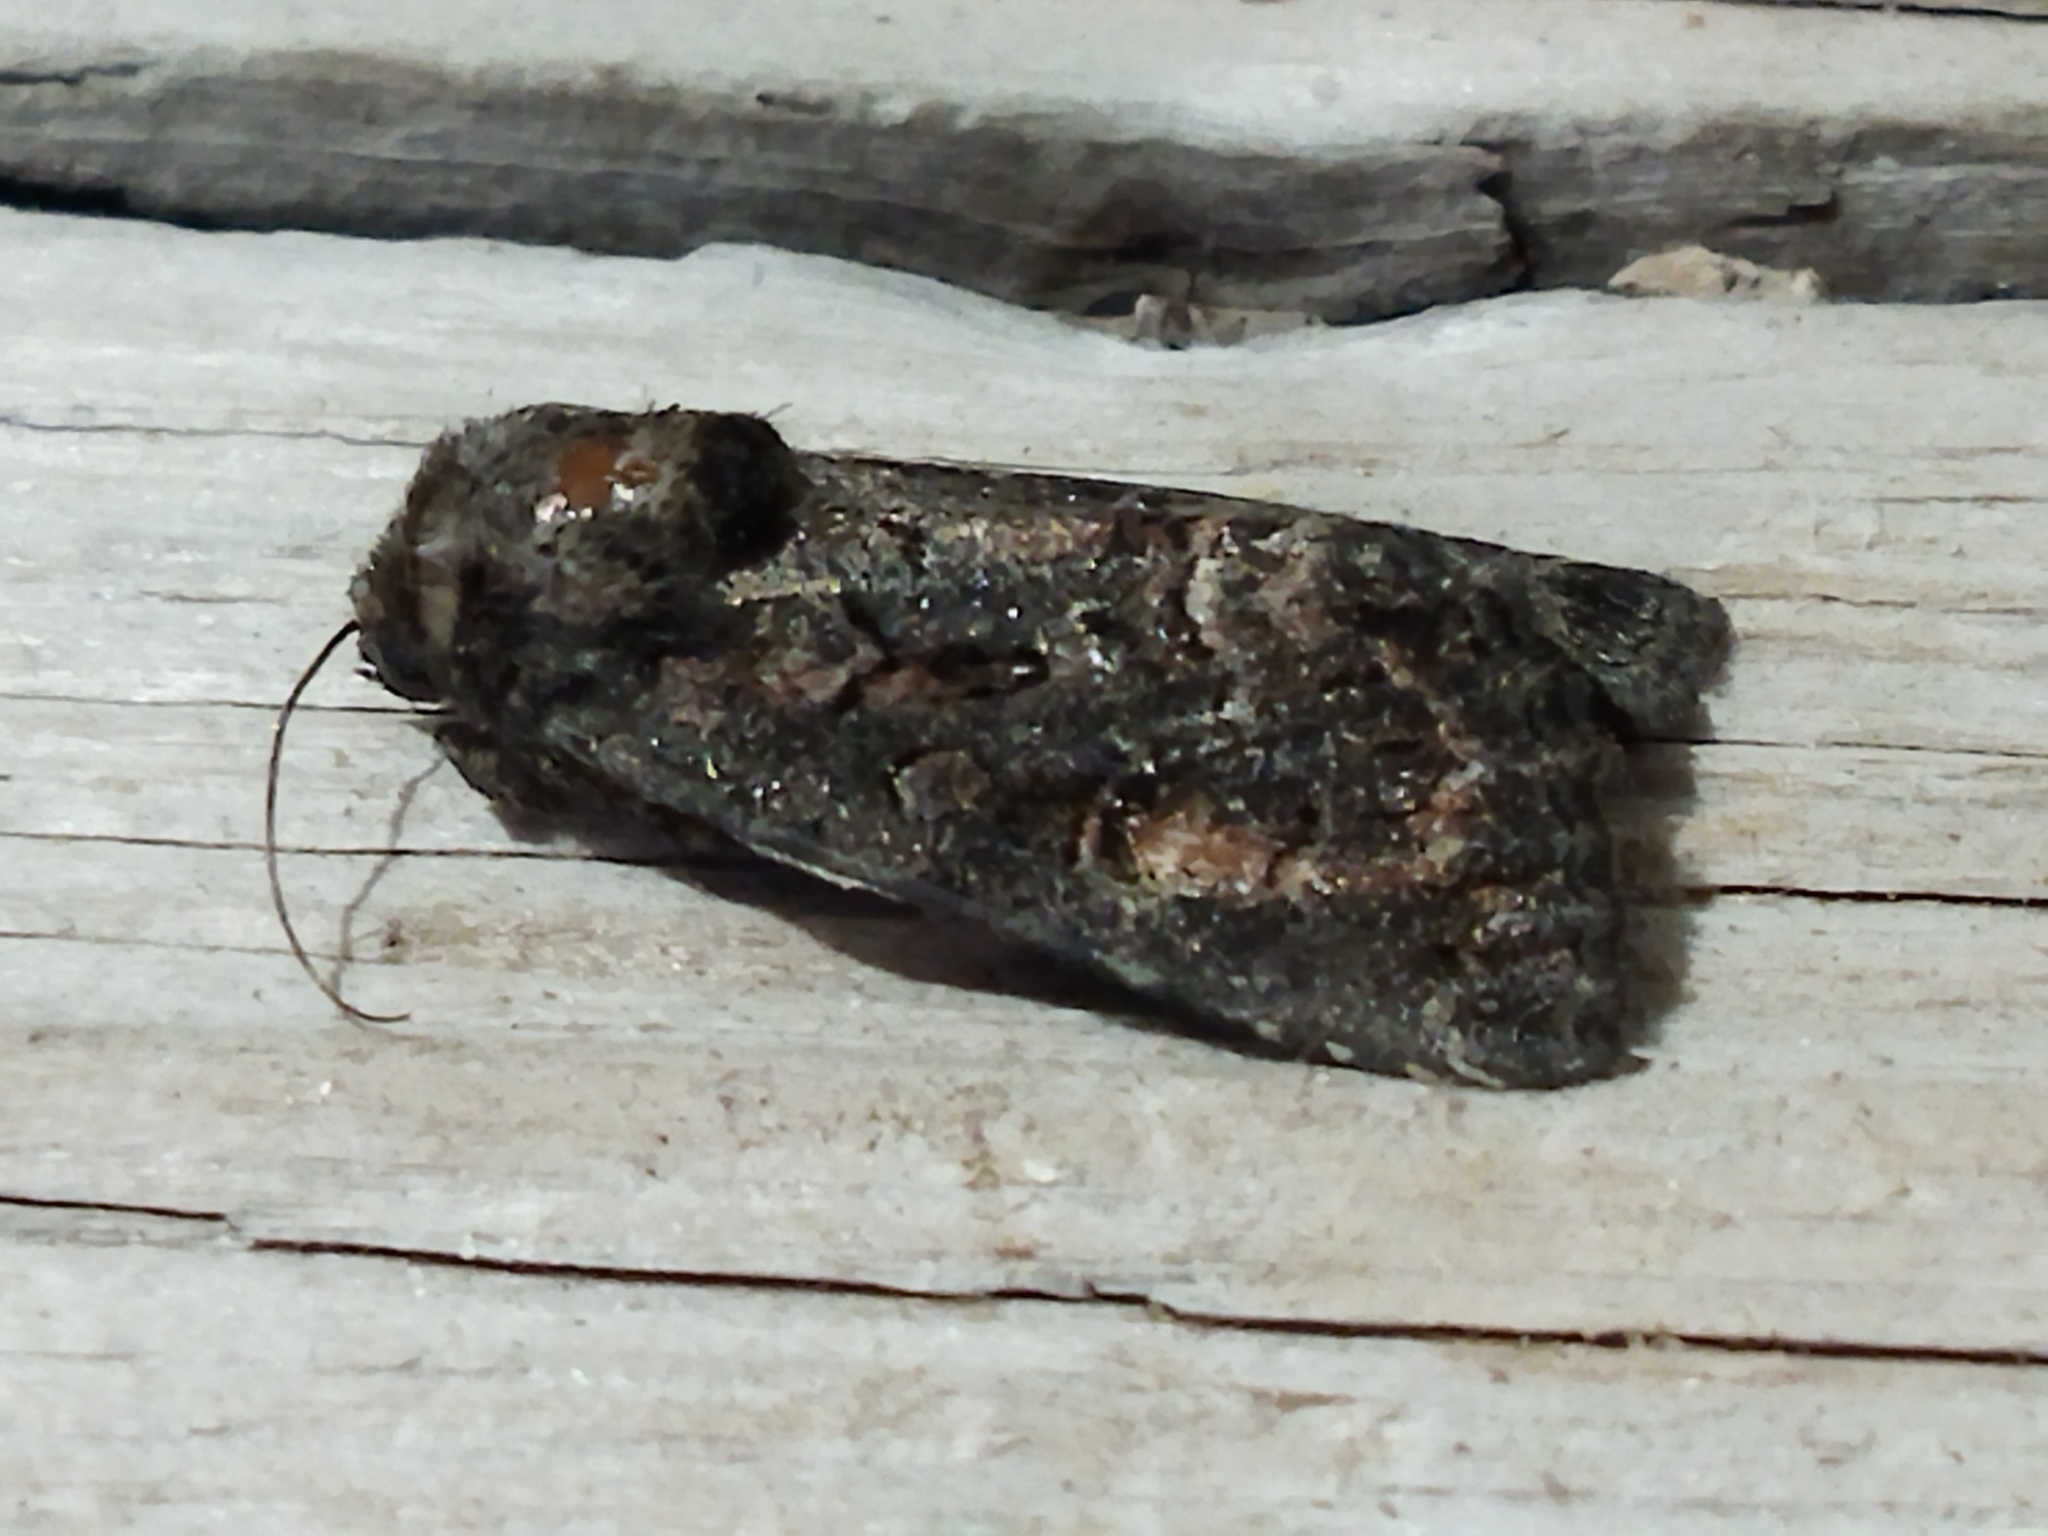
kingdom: Animalia
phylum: Arthropoda
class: Insecta
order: Lepidoptera
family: Noctuidae
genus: Thalpophila
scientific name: Thalpophila matura
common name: Straw underwing
